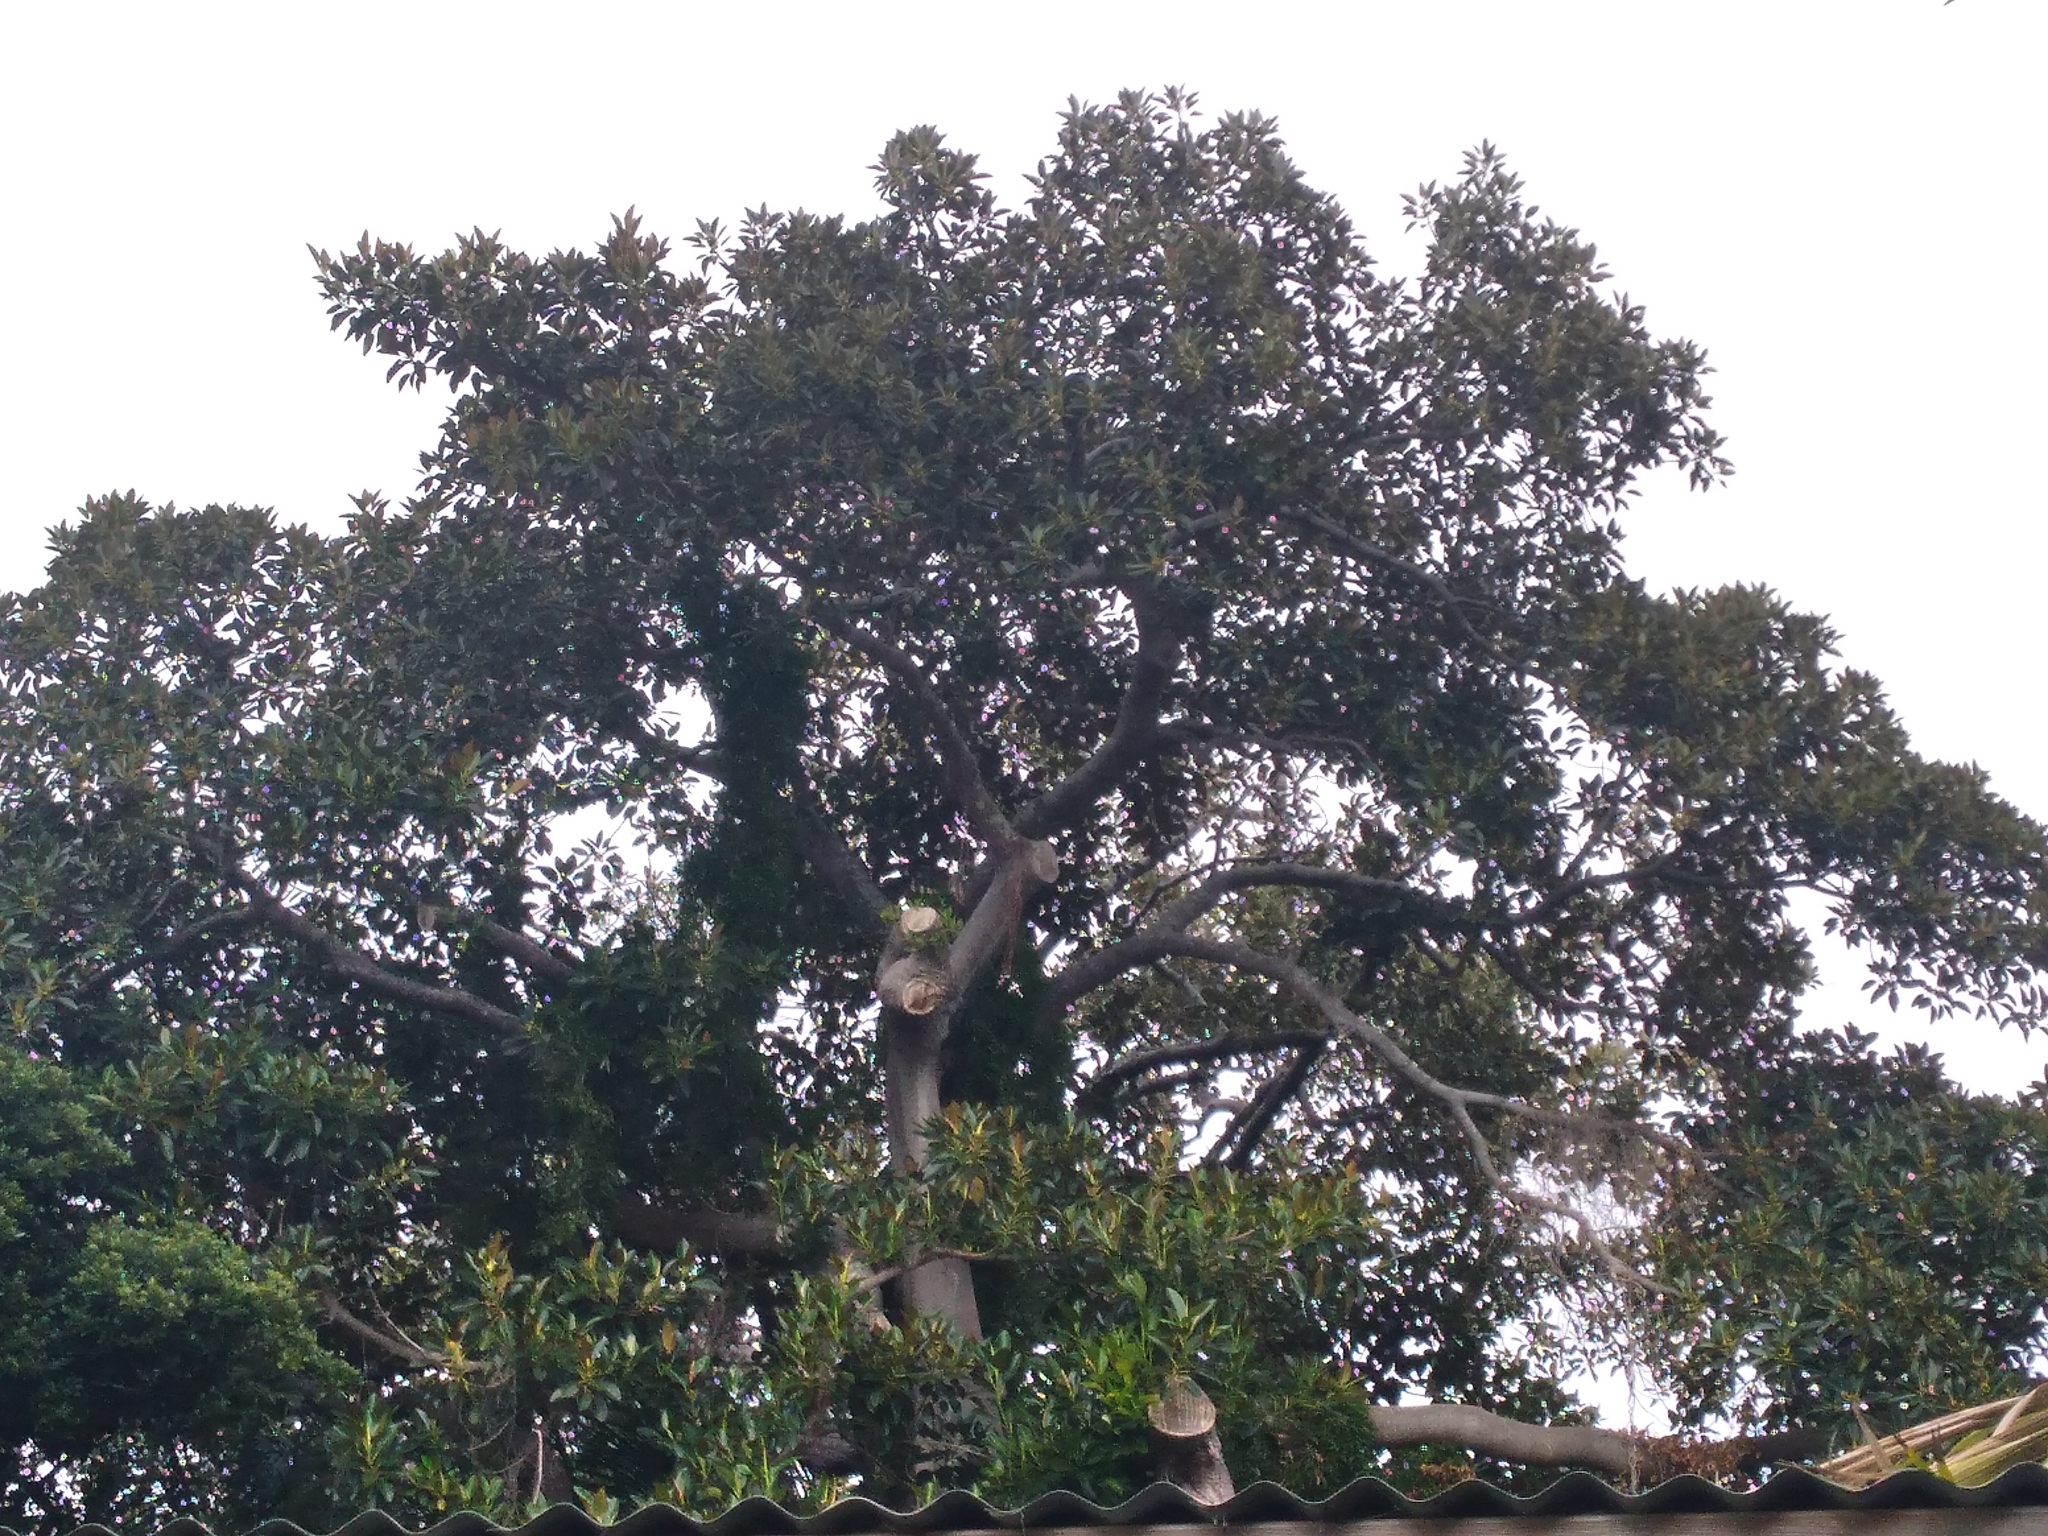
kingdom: Plantae
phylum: Tracheophyta
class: Magnoliopsida
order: Rosales
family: Moraceae
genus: Ficus
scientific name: Ficus macrophylla
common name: Moreton bay fig
